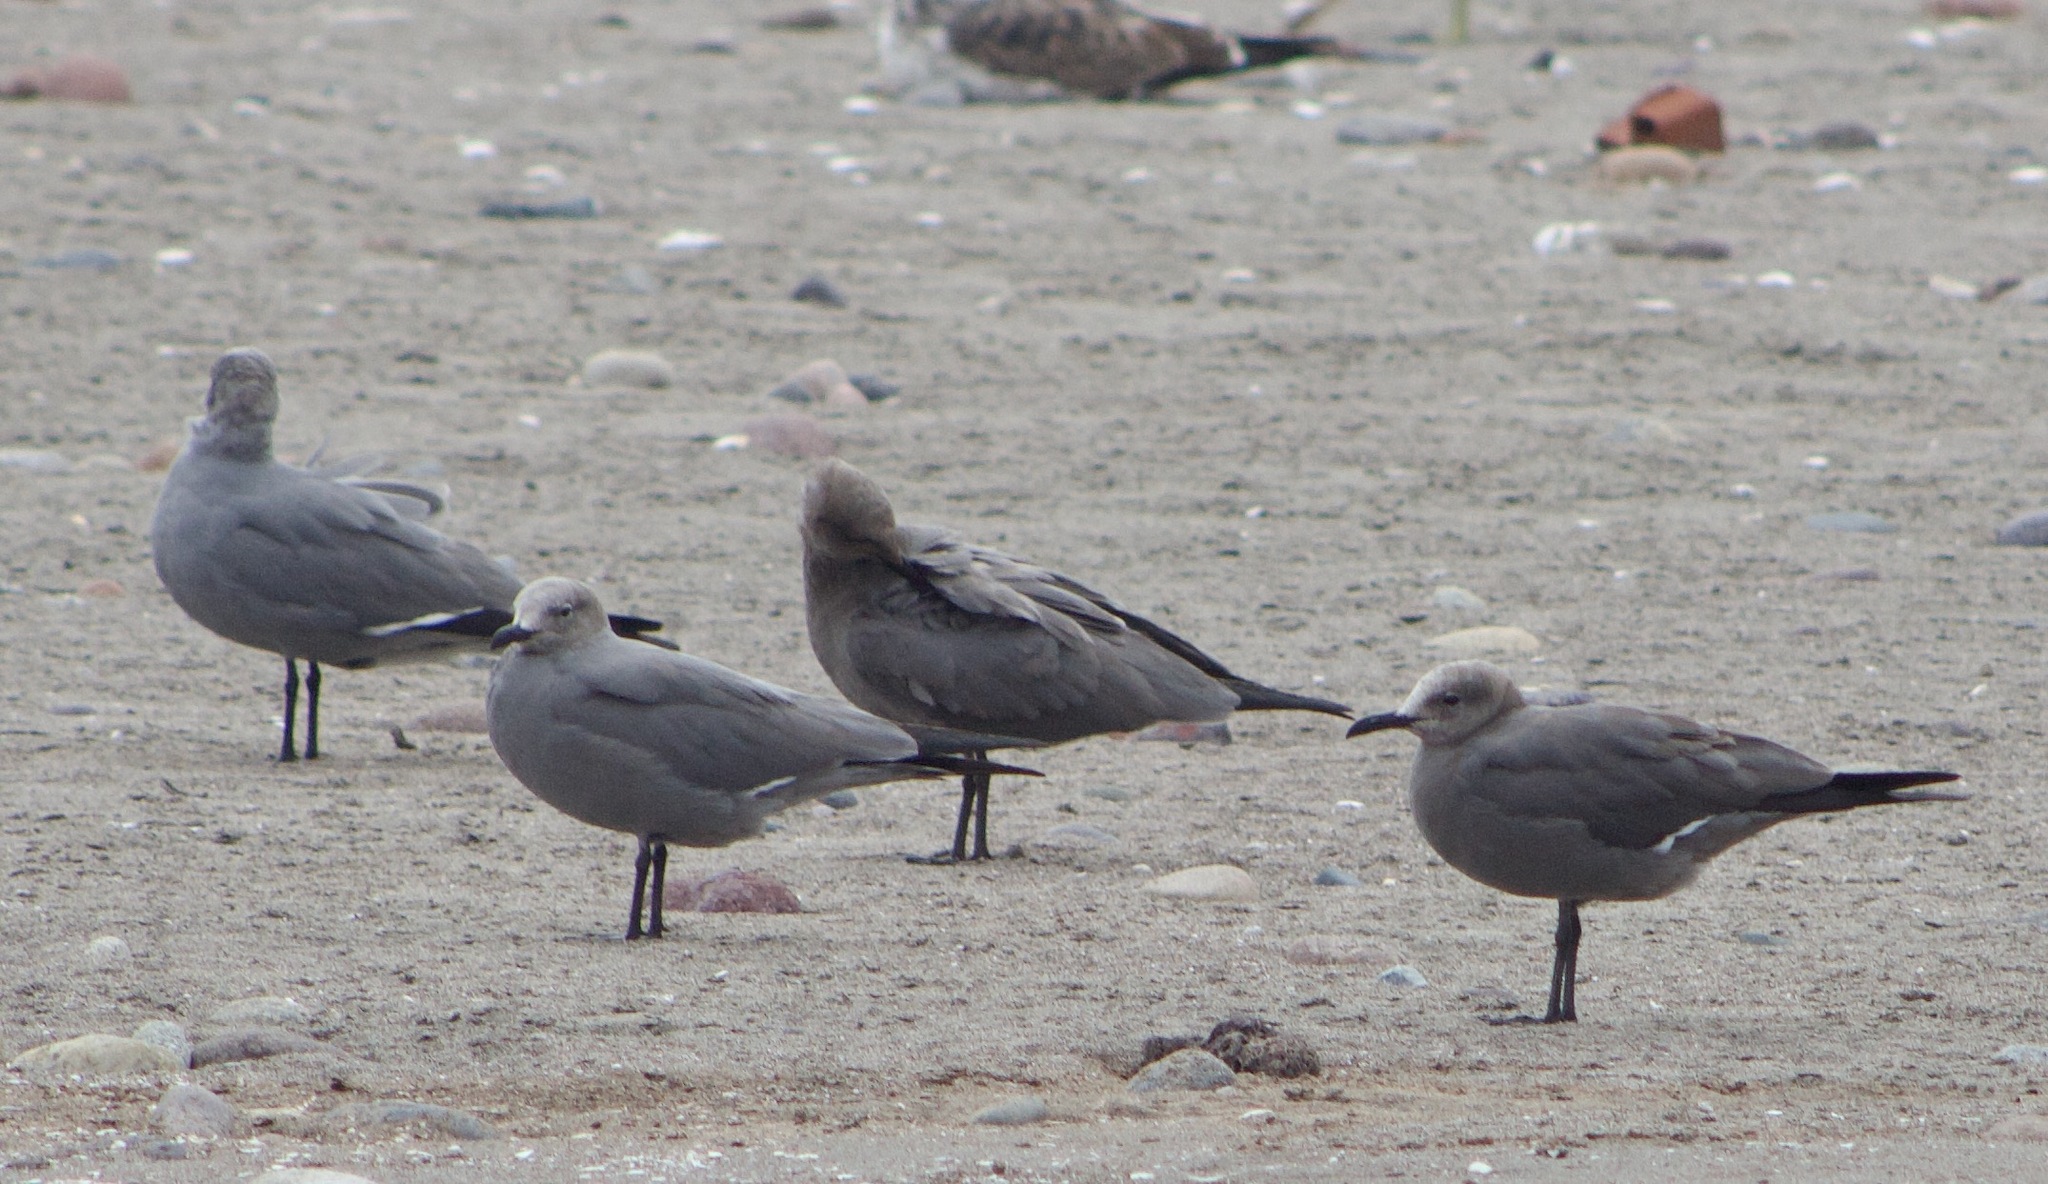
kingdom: Animalia
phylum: Chordata
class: Aves
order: Charadriiformes
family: Laridae
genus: Leucophaeus
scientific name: Leucophaeus modestus
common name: Gray gull
